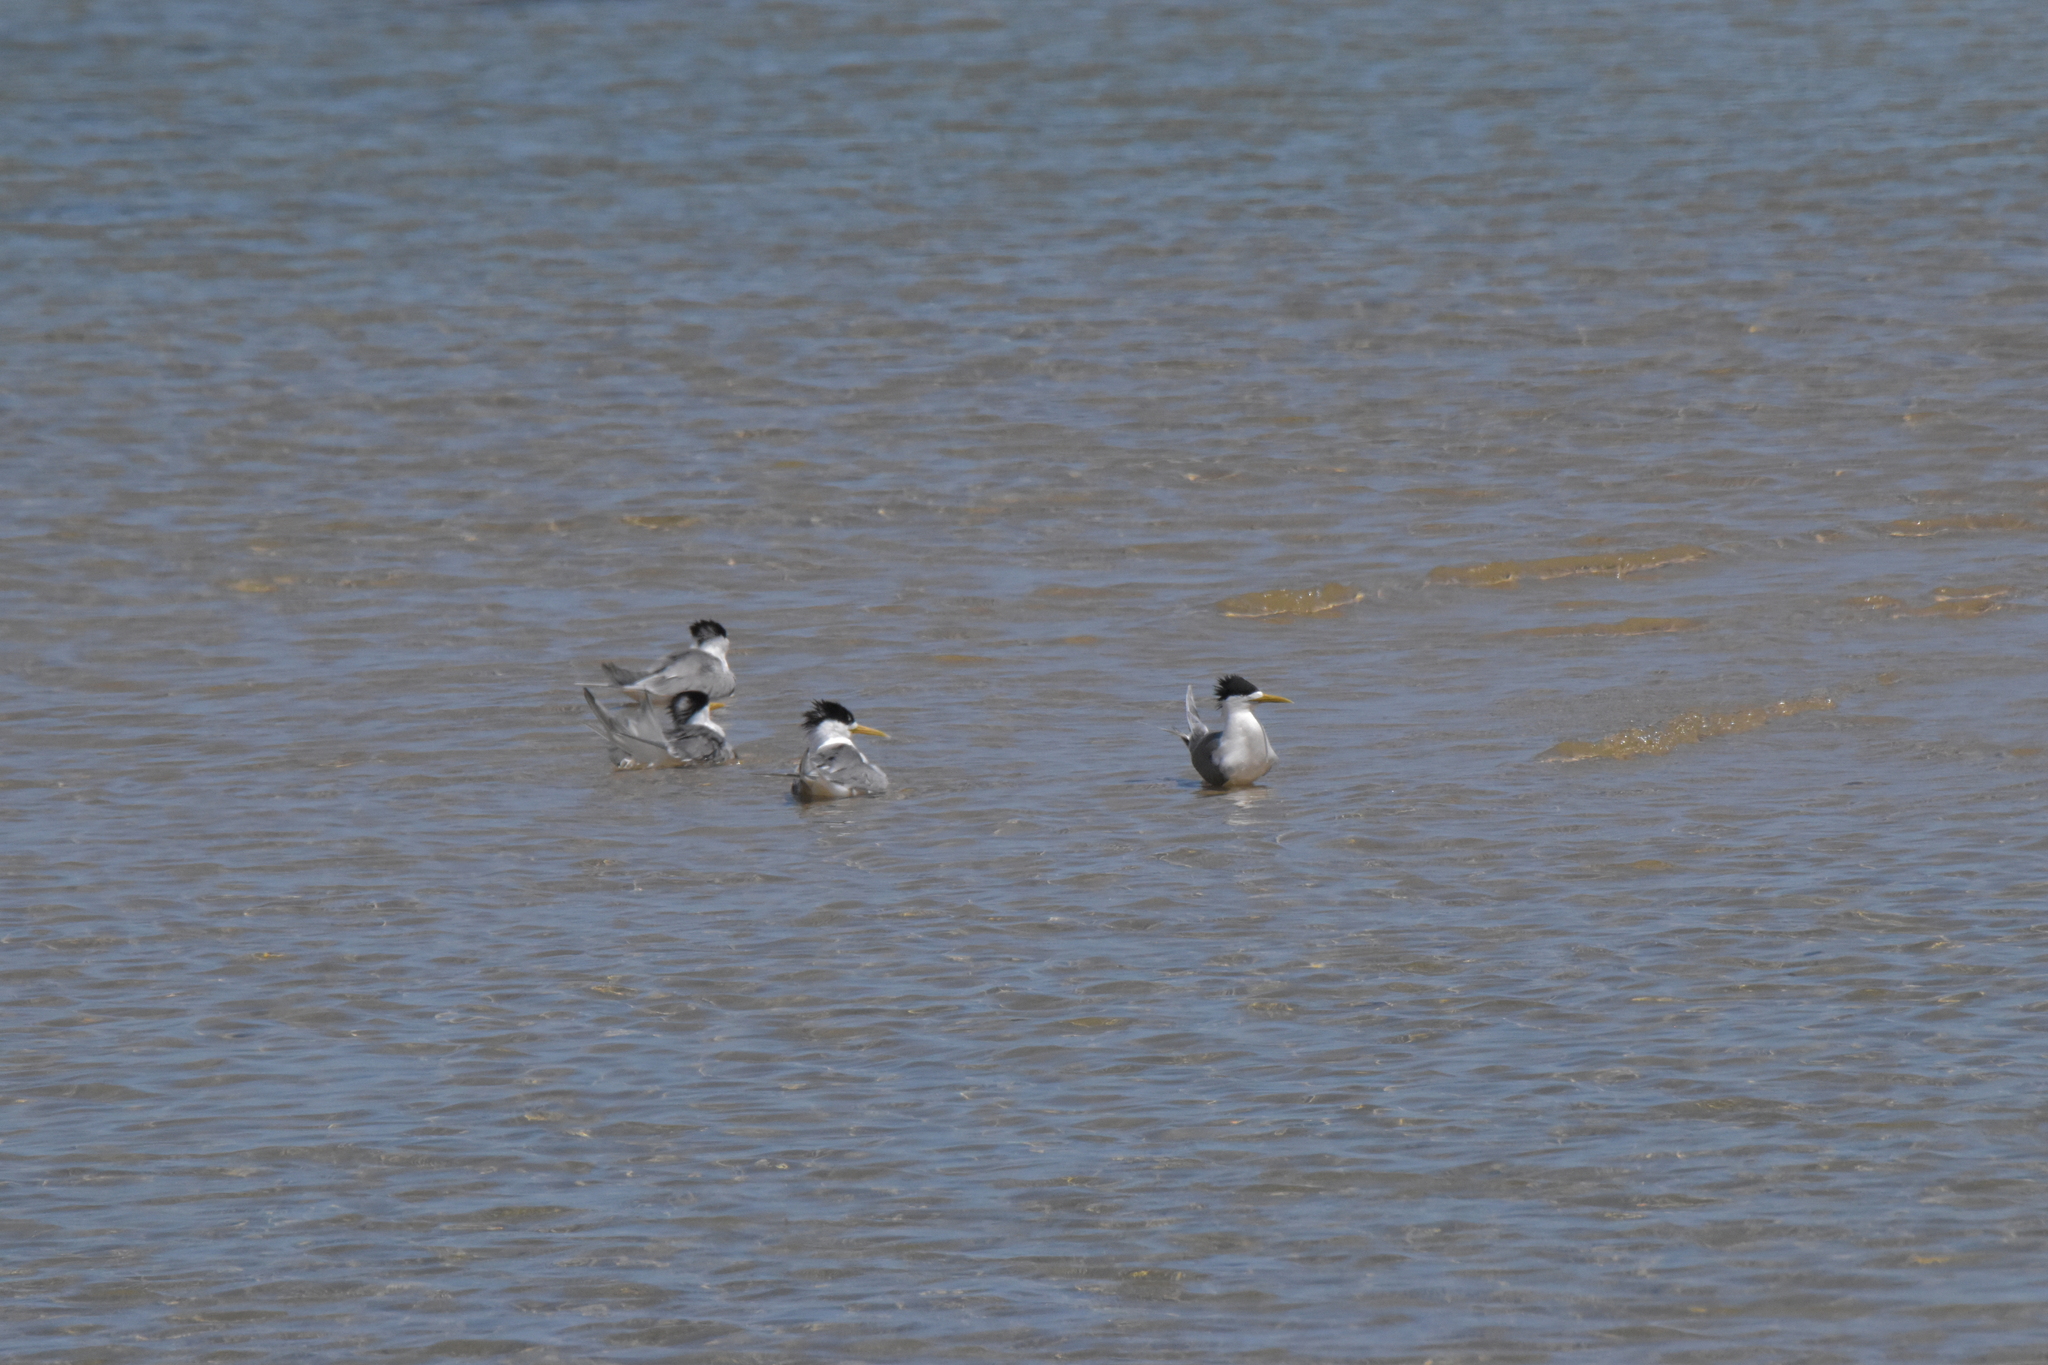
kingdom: Animalia
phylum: Chordata
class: Aves
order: Charadriiformes
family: Laridae
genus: Thalasseus
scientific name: Thalasseus bergii
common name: Greater crested tern
